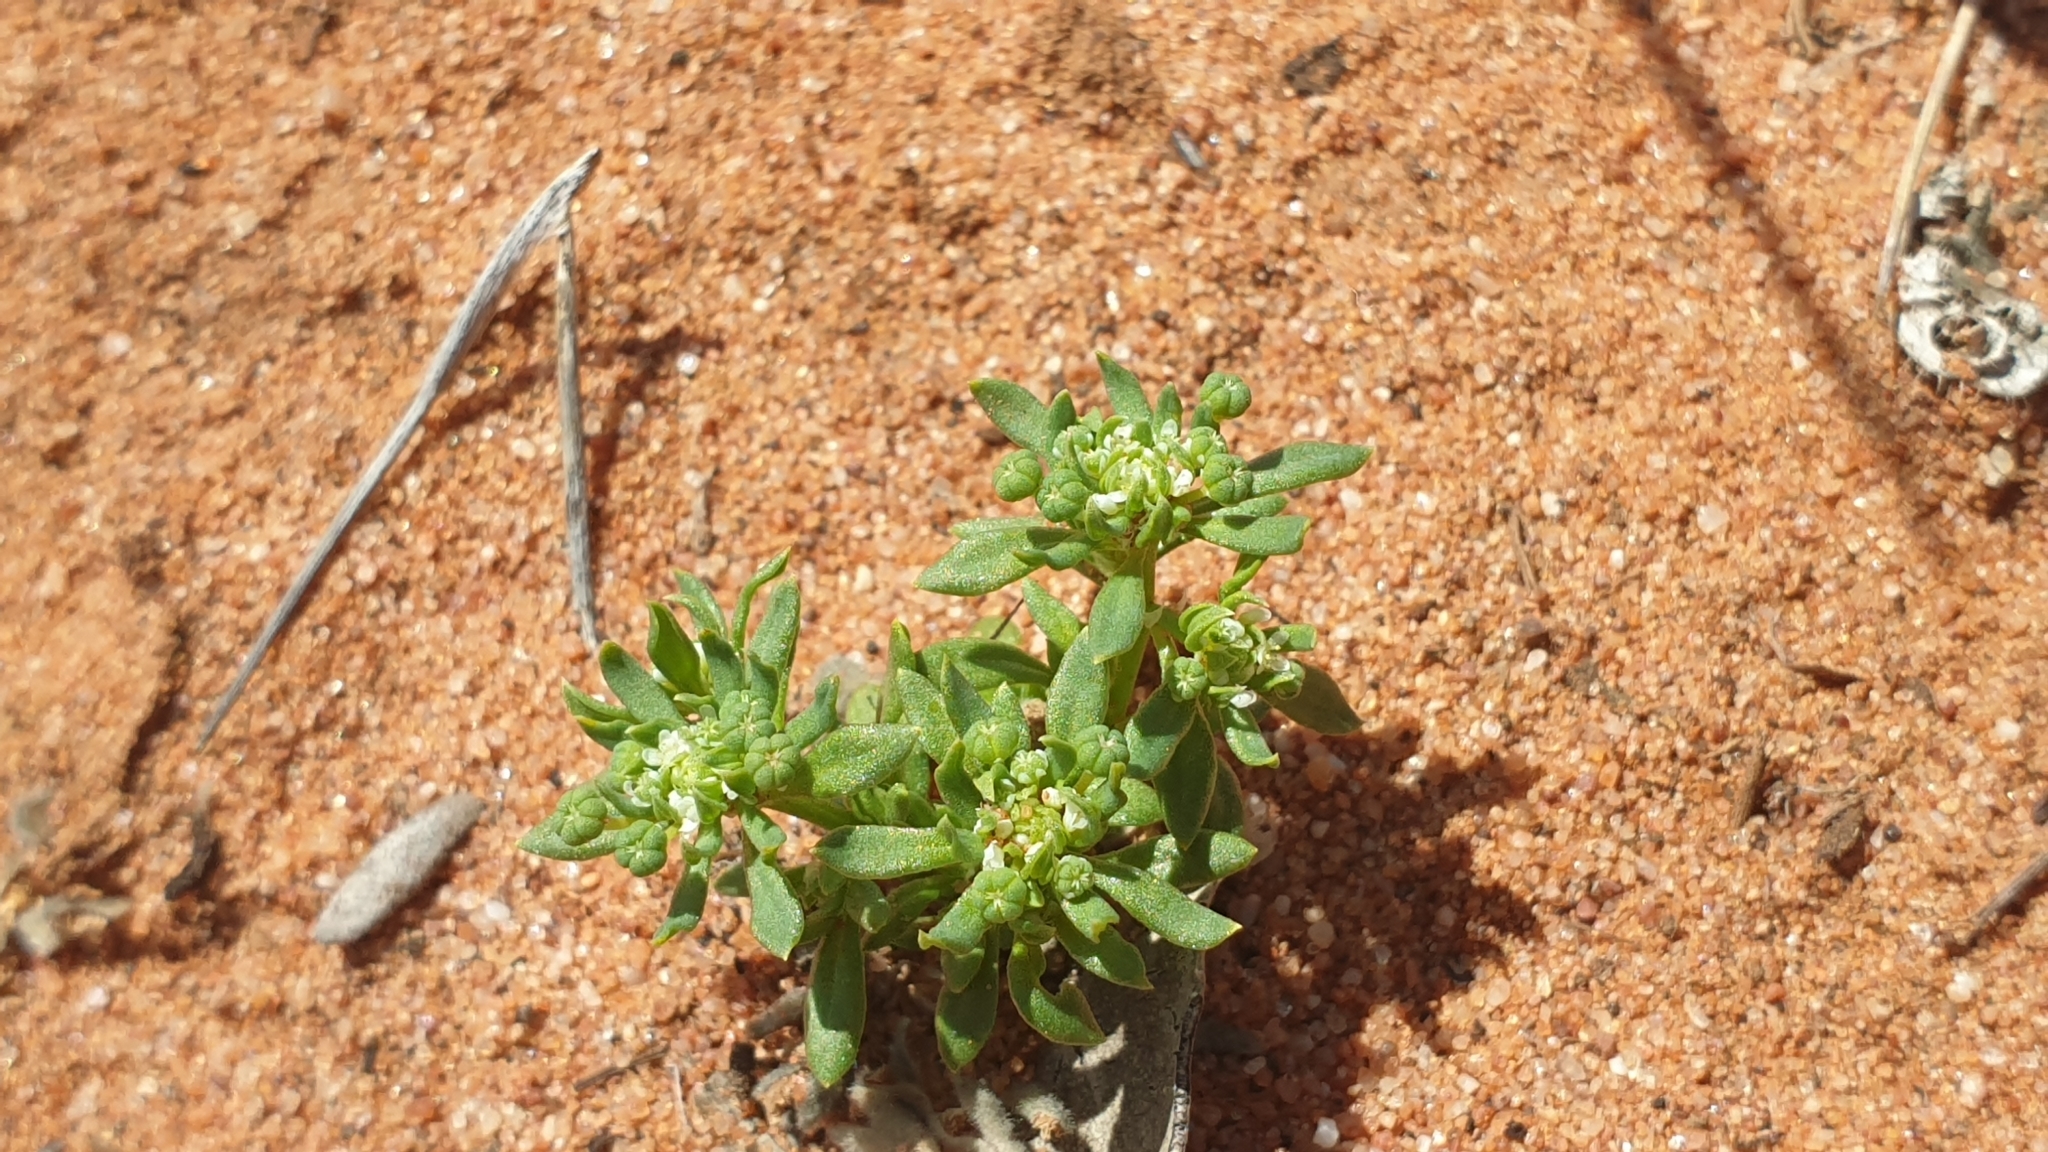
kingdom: Plantae
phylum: Tracheophyta
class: Magnoliopsida
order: Malpighiales
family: Phyllanthaceae
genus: Poranthera
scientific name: Poranthera microphylla
